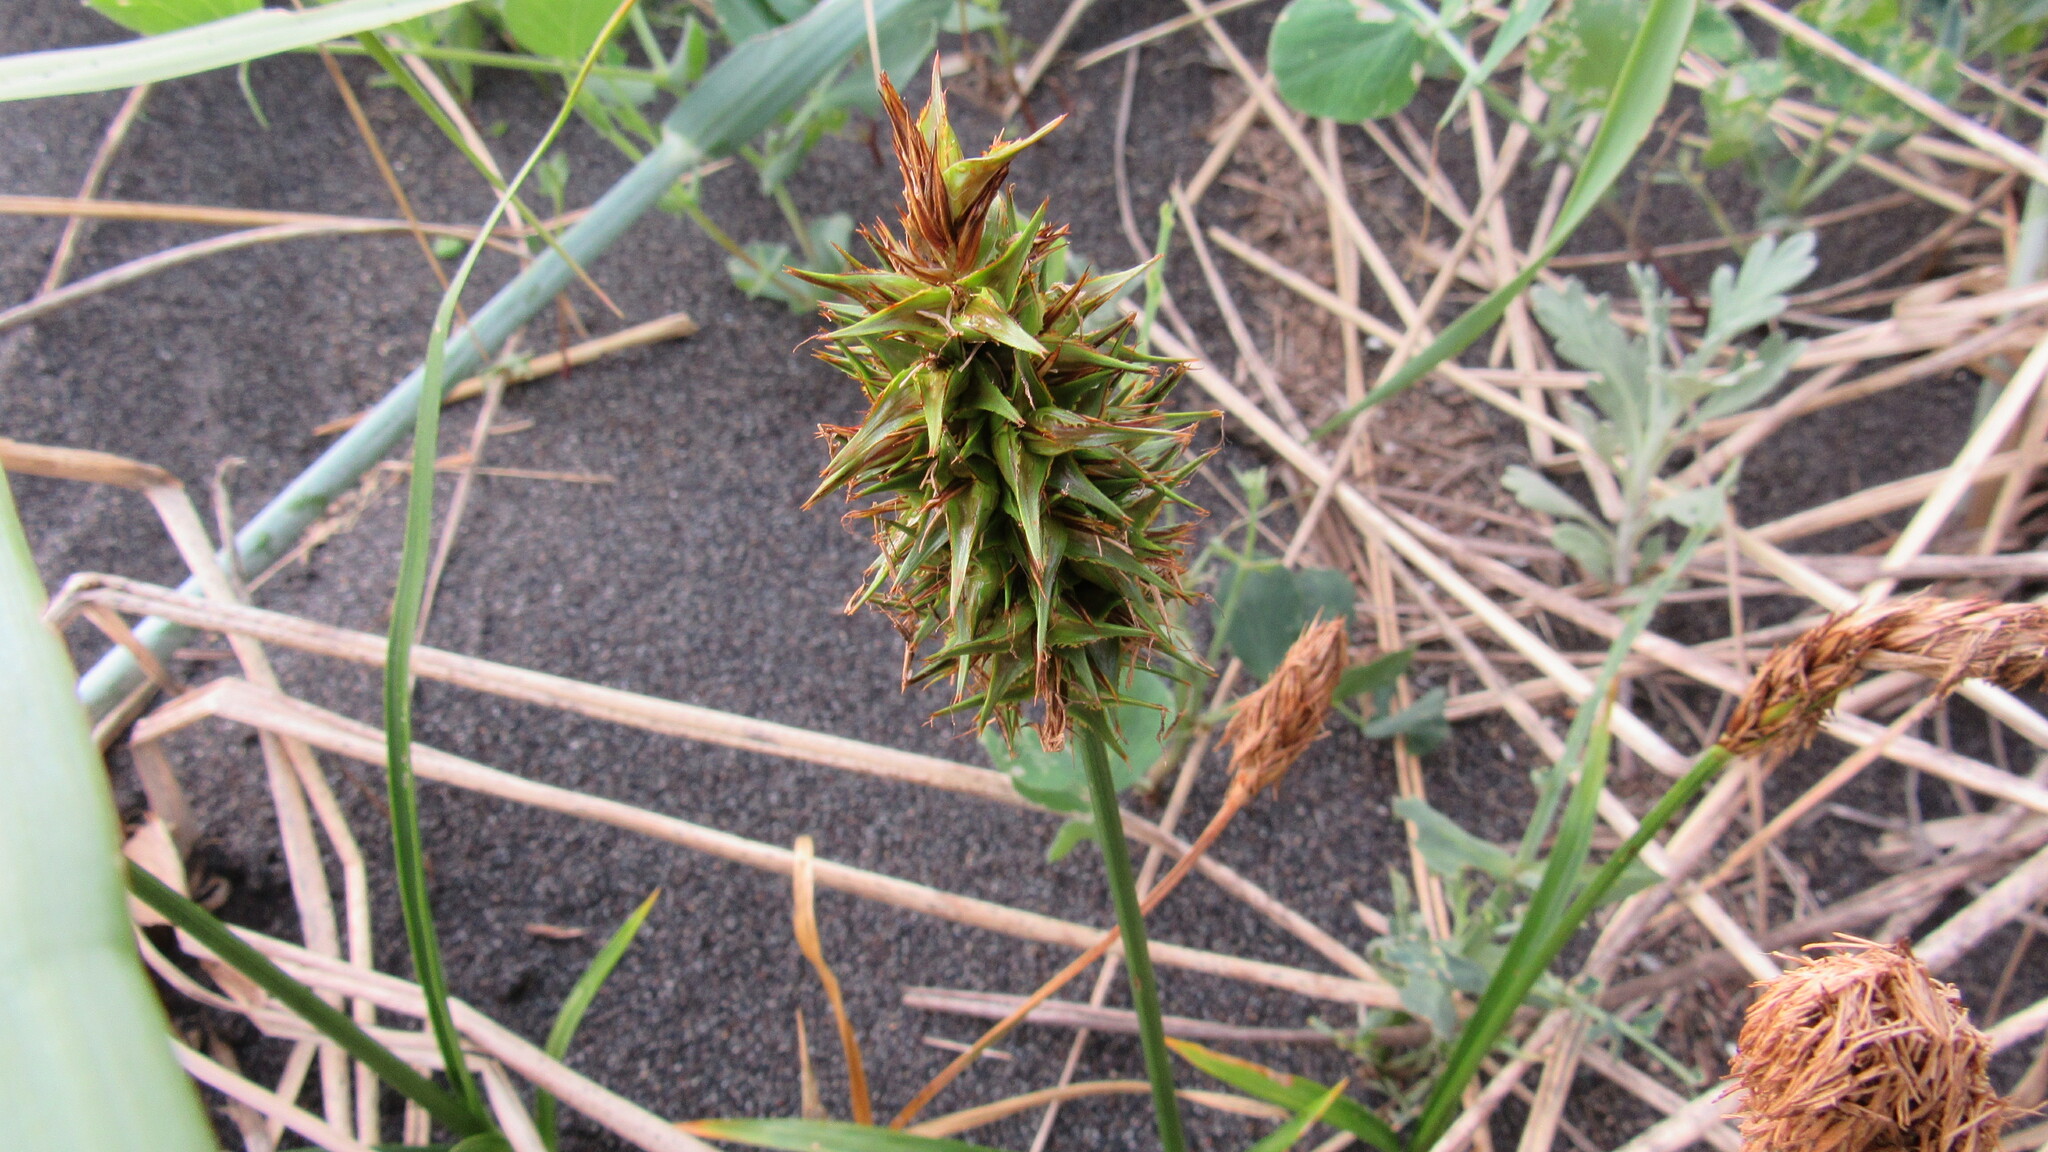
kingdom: Plantae
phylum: Tracheophyta
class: Liliopsida
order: Poales
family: Cyperaceae
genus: Carex
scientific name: Carex macrocephala
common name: Large-head sedge
